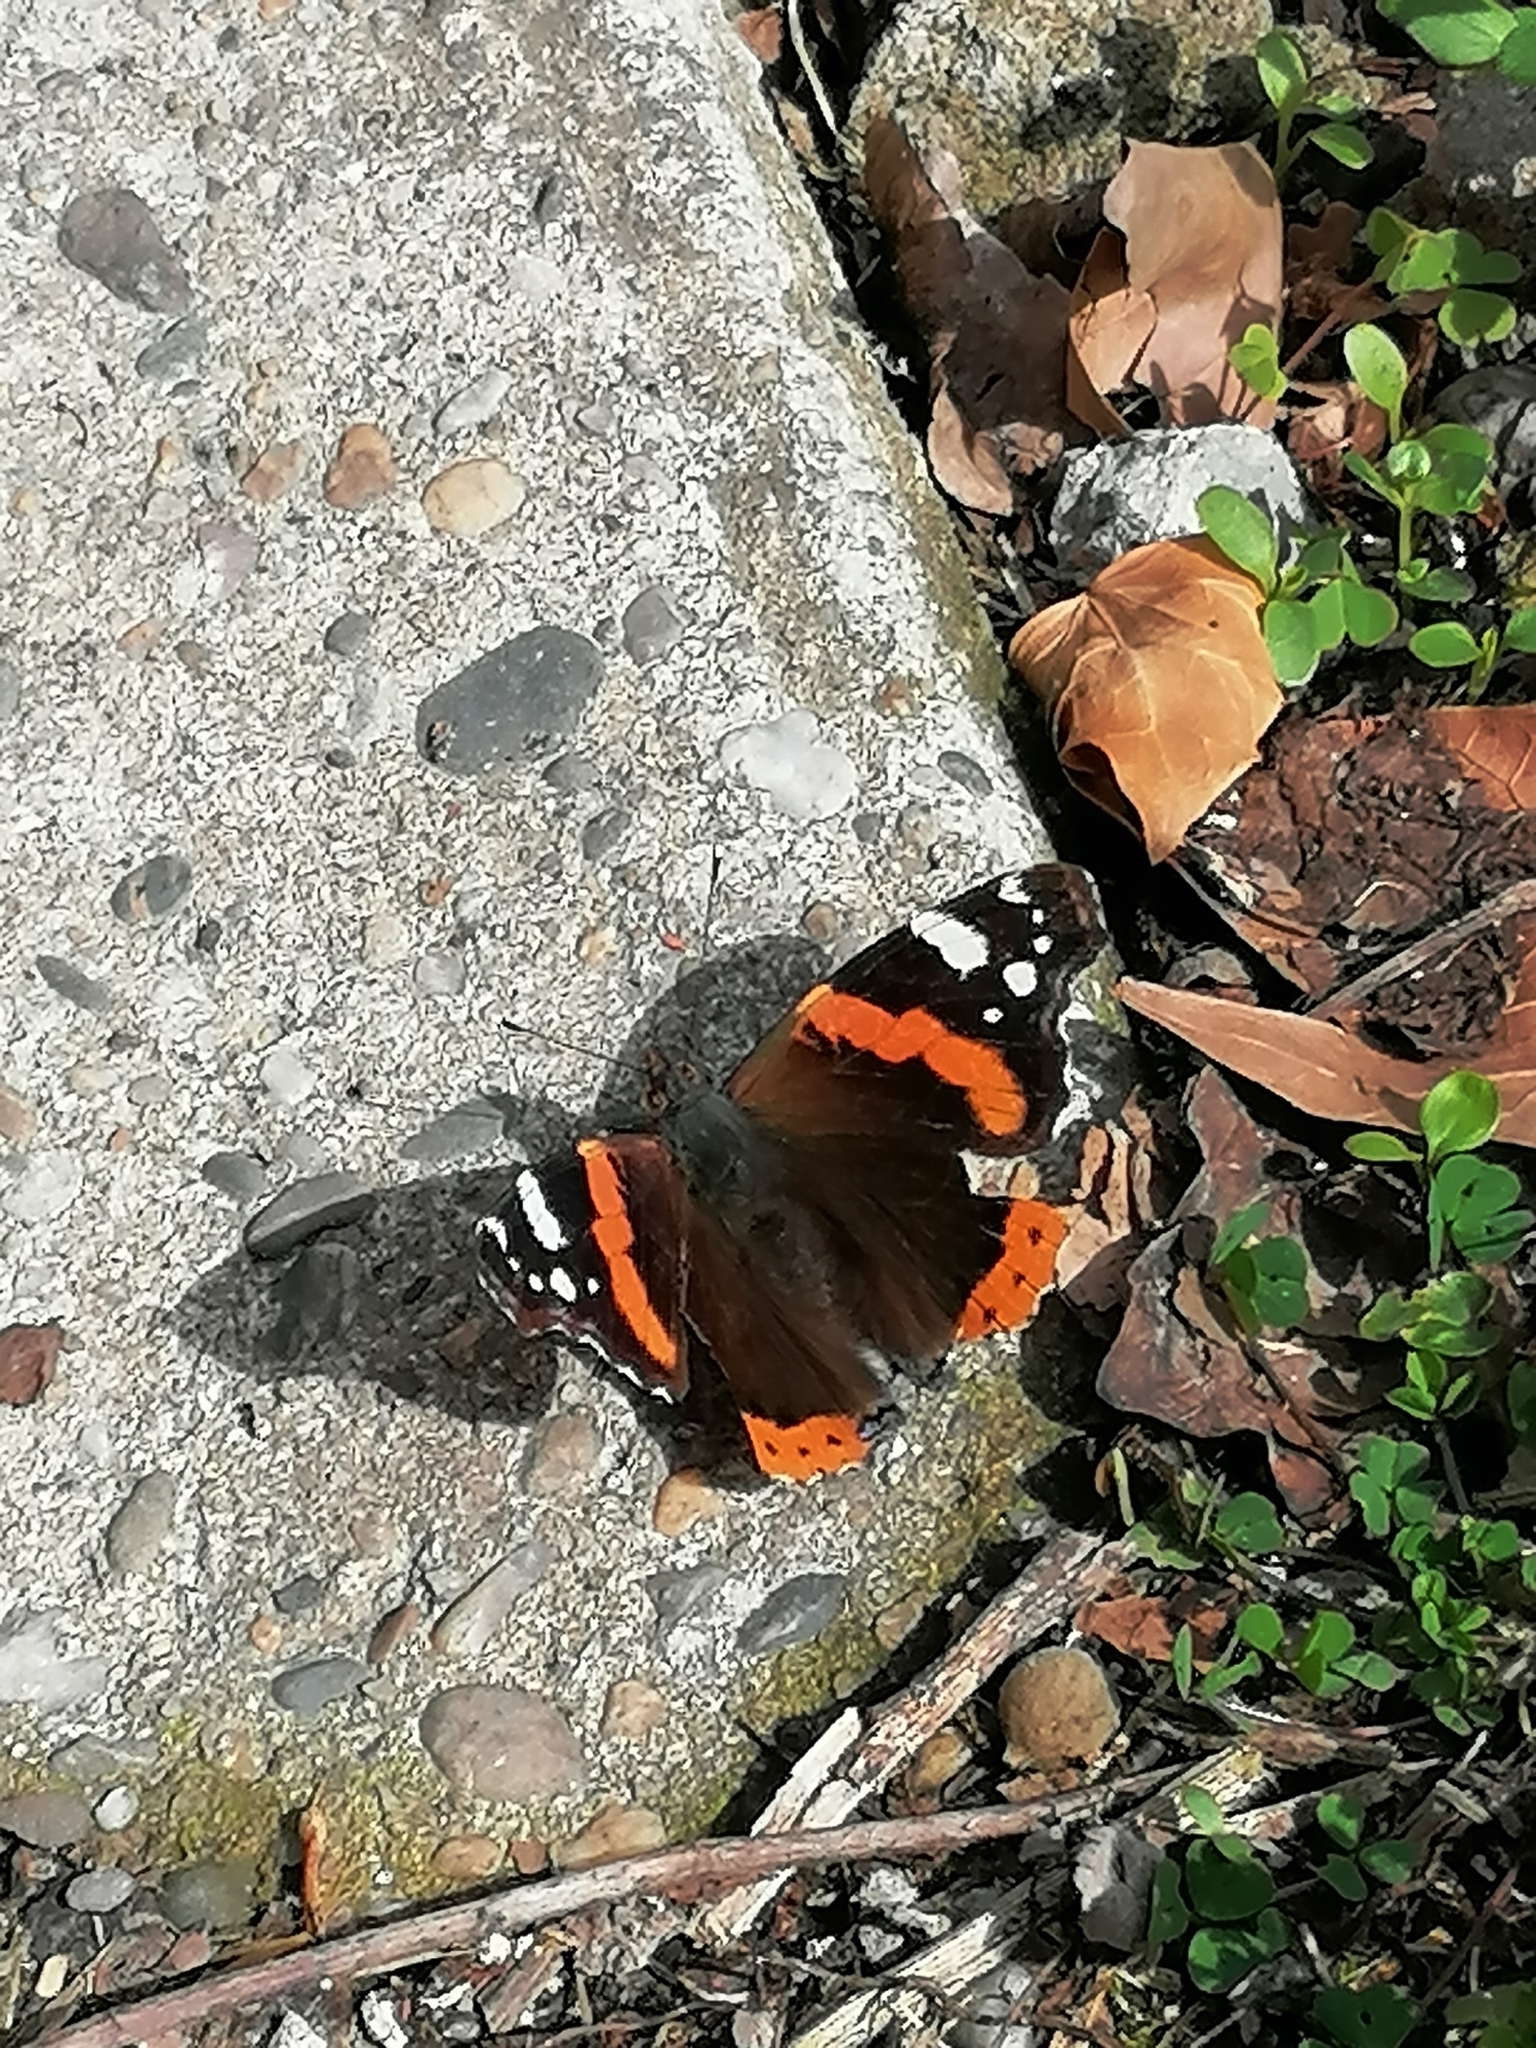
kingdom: Animalia
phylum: Arthropoda
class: Insecta
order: Lepidoptera
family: Nymphalidae
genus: Vanessa
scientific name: Vanessa atalanta
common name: Red admiral
